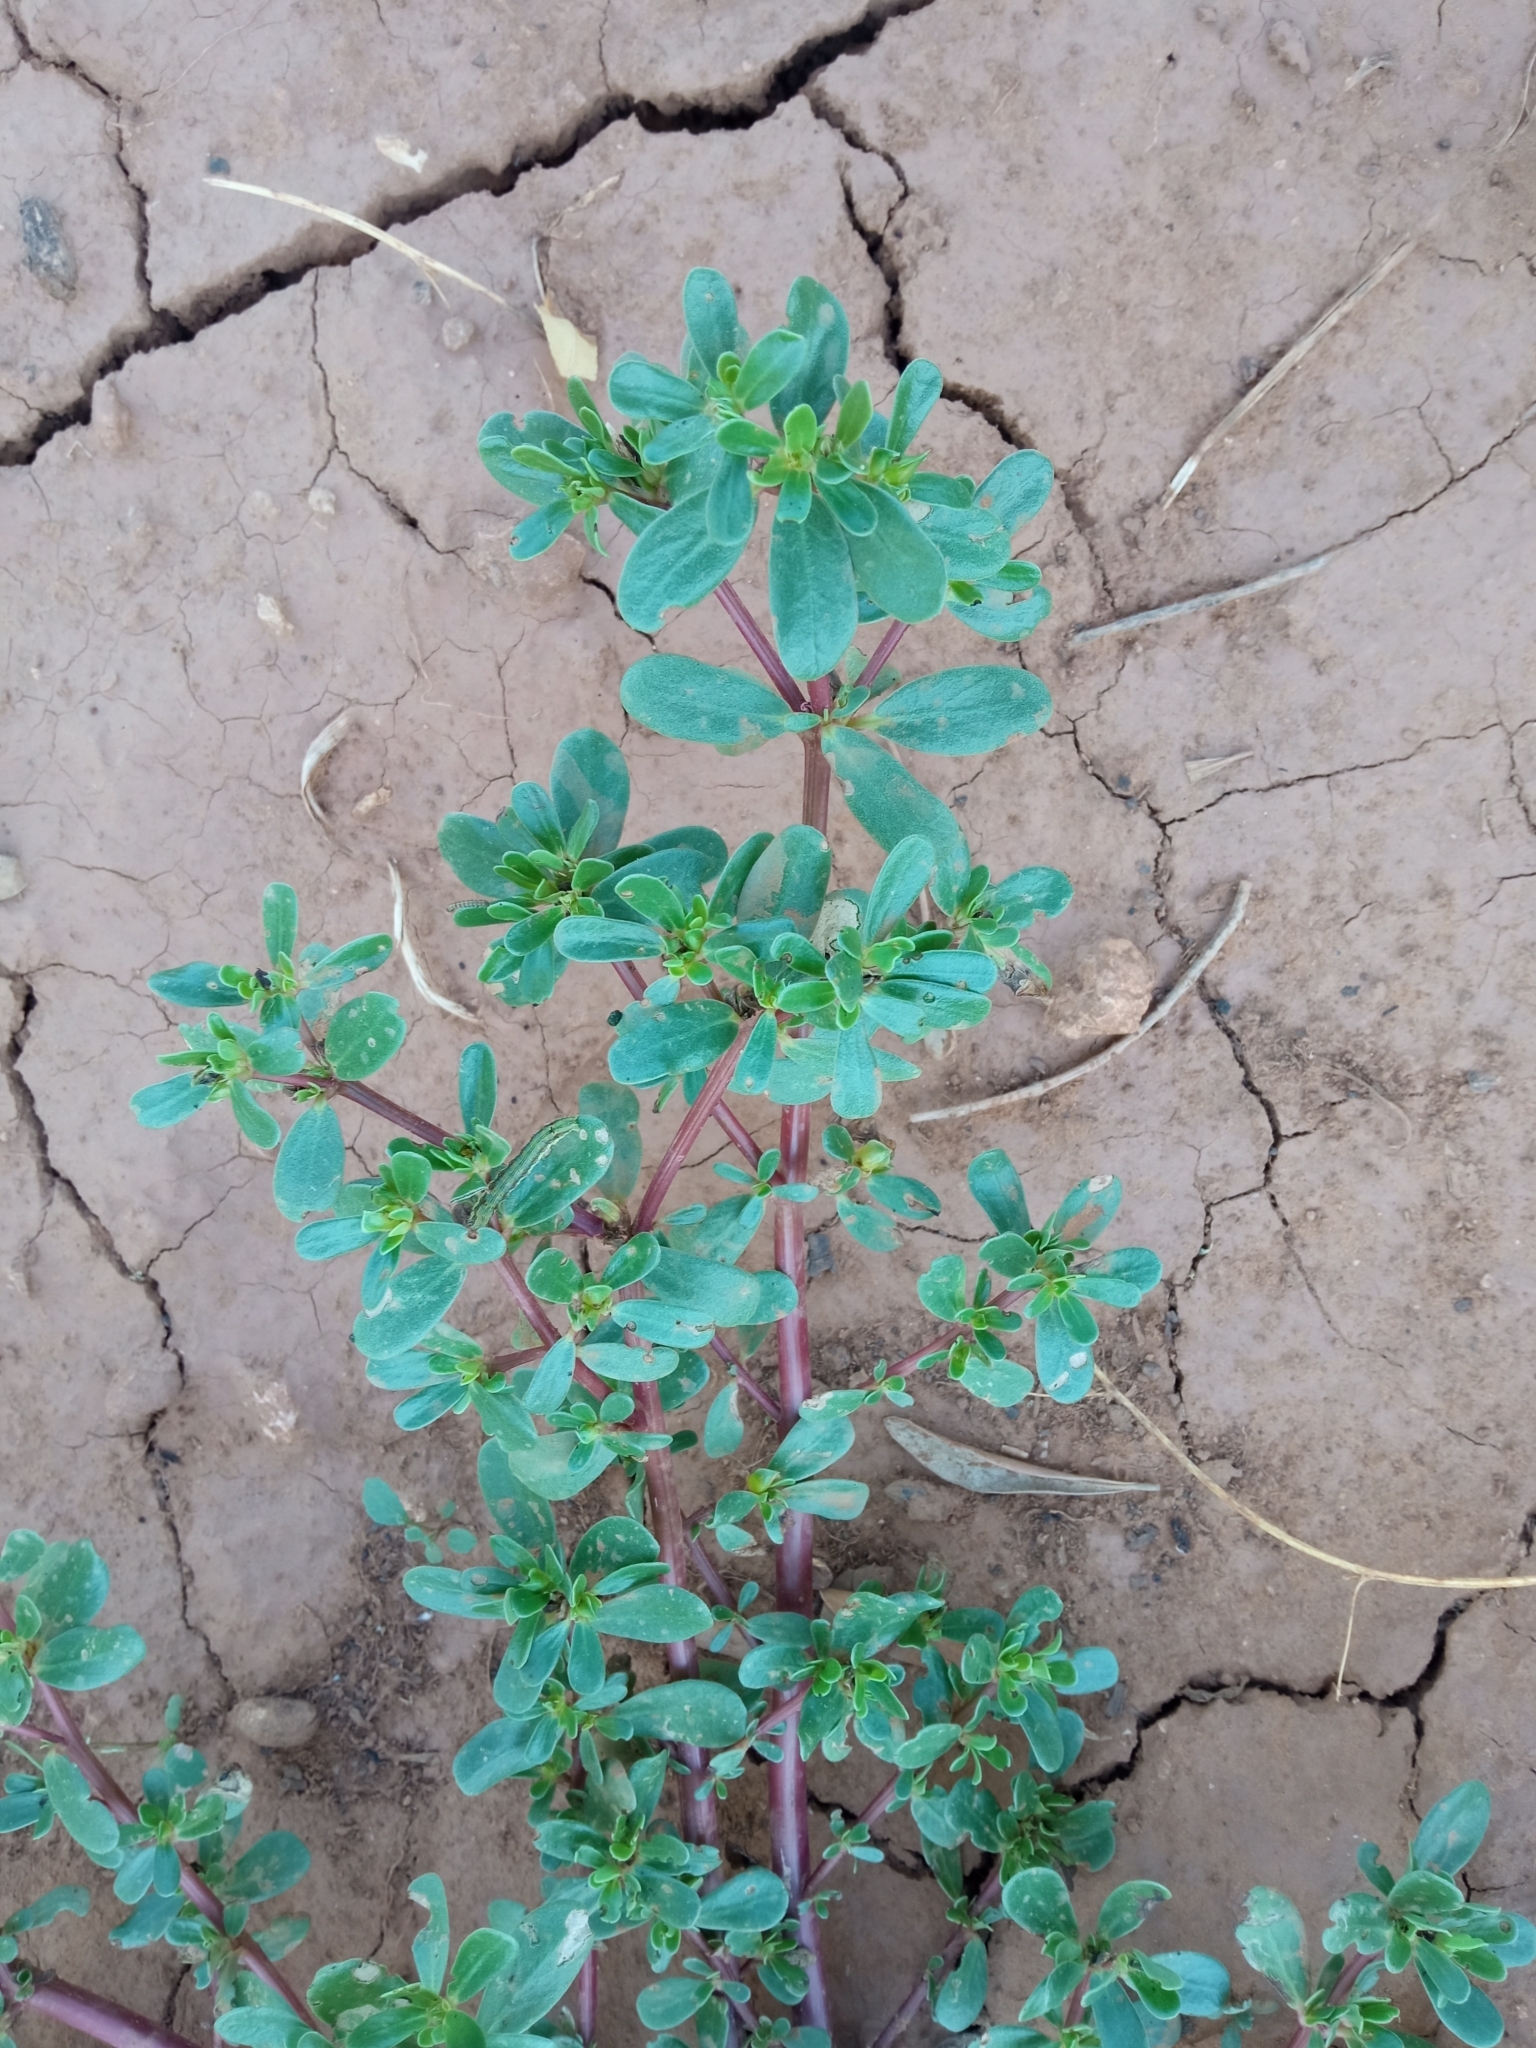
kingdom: Plantae
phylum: Tracheophyta
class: Magnoliopsida
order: Caryophyllales
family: Portulacaceae
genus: Portulaca
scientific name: Portulaca oleracea
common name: Common purslane
